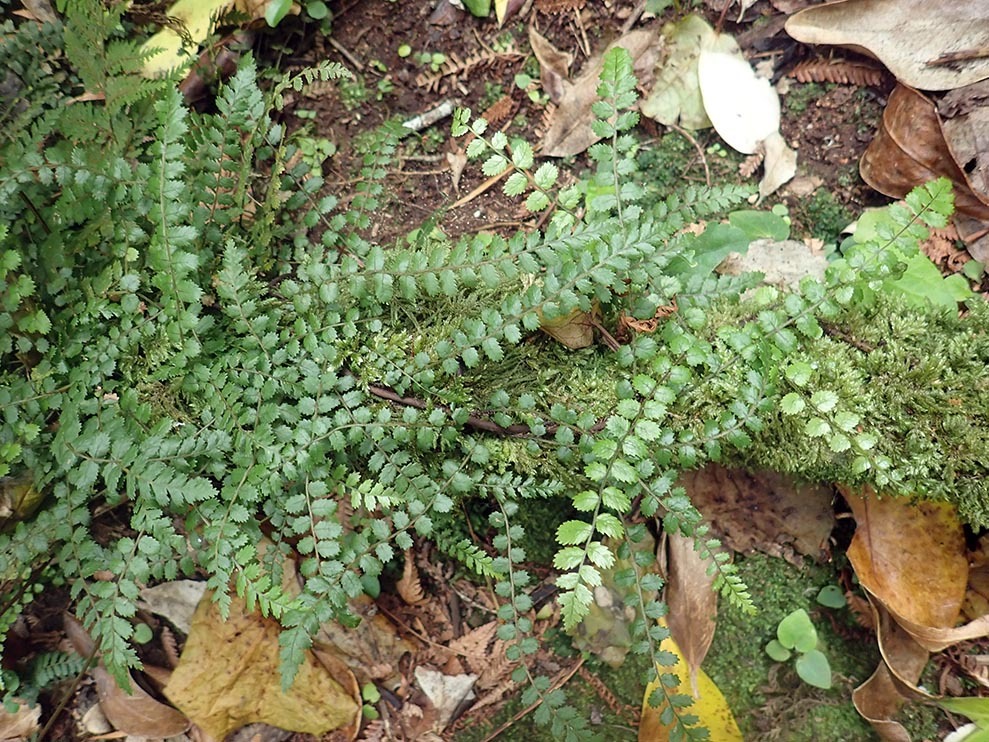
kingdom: Plantae
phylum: Tracheophyta
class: Polypodiopsida
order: Polypodiales
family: Blechnaceae
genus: Icarus
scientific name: Icarus filiformis
